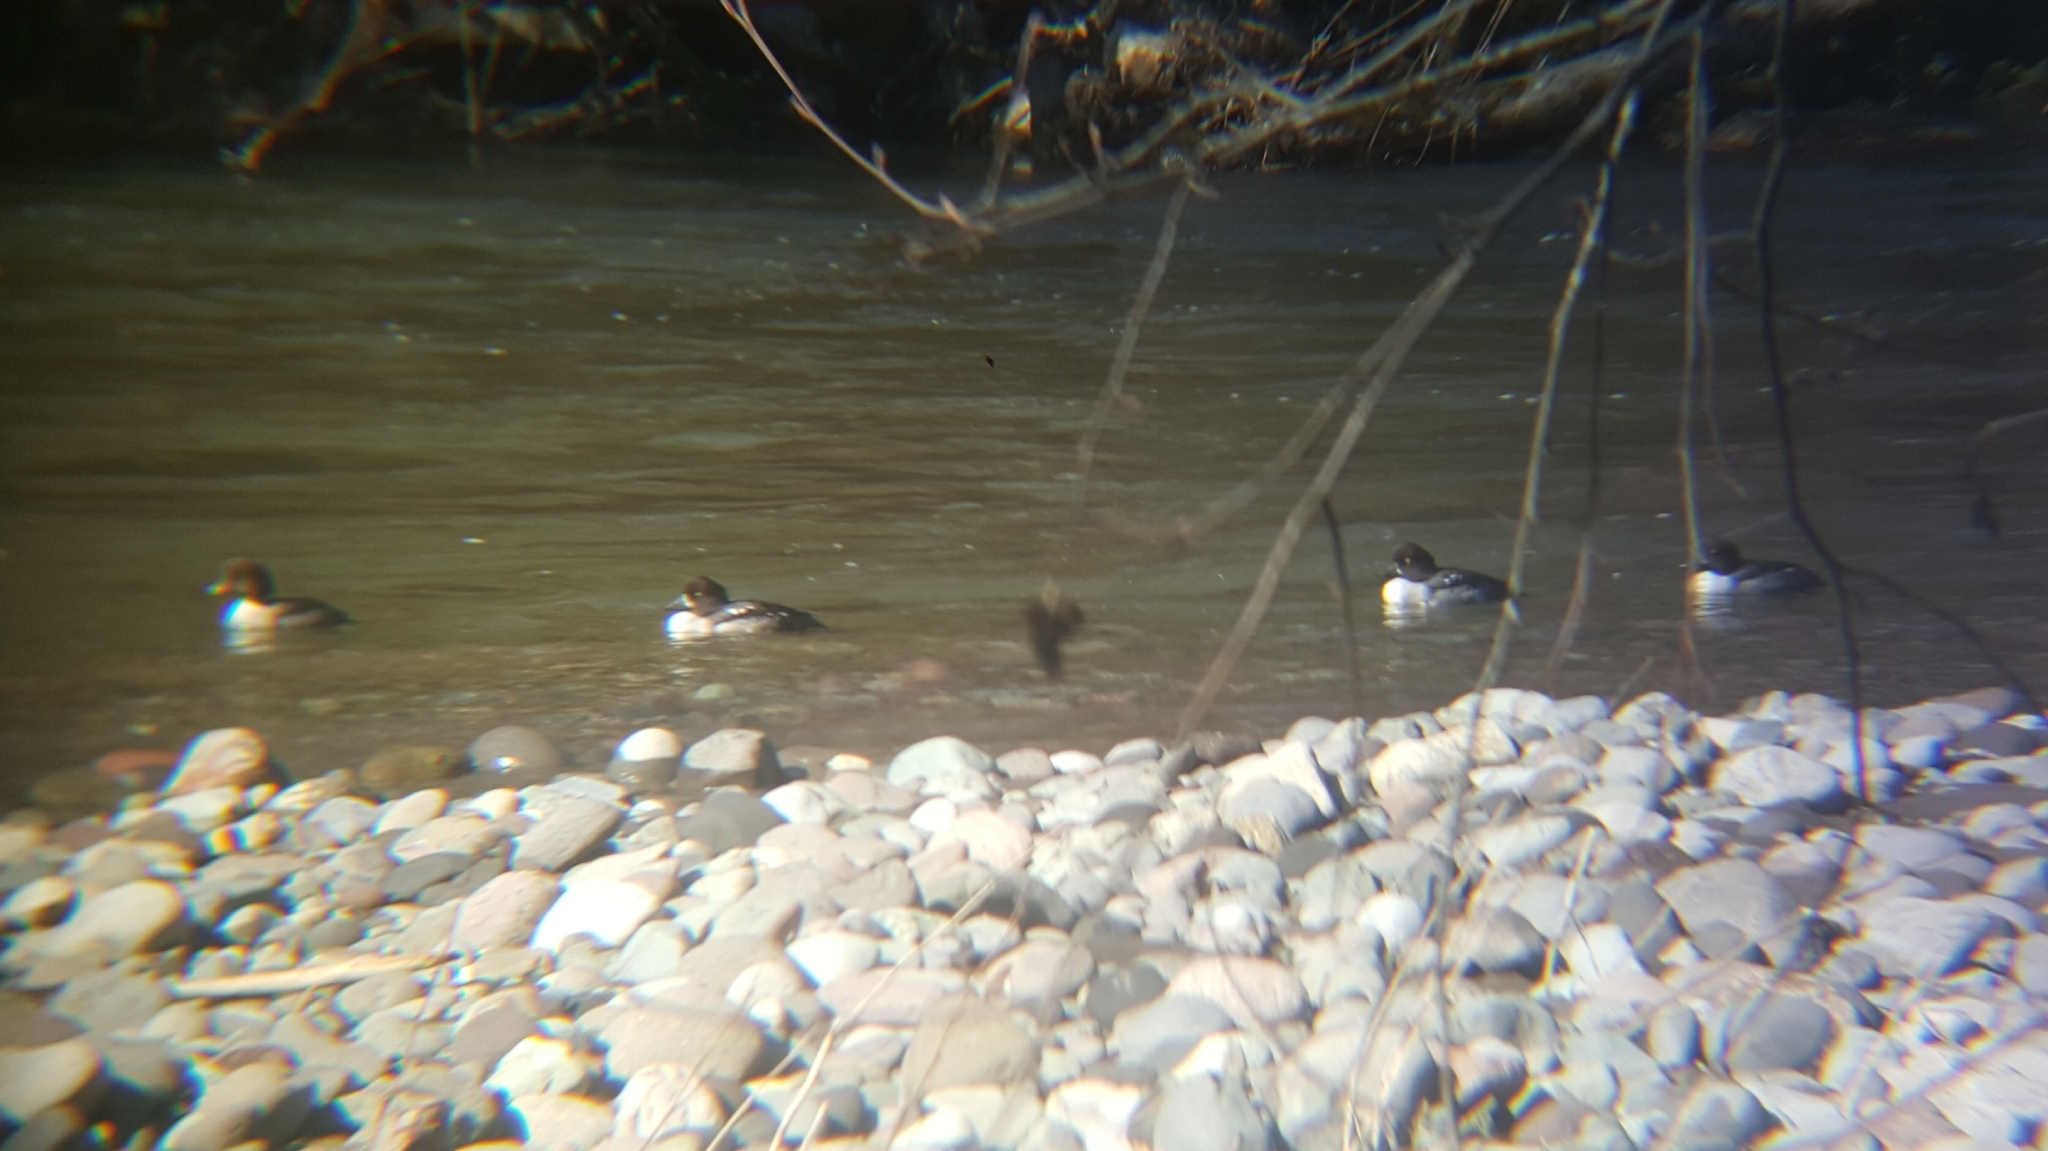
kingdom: Animalia
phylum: Chordata
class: Aves
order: Anseriformes
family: Anatidae
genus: Bucephala
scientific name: Bucephala islandica
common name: Barrow's goldeneye
